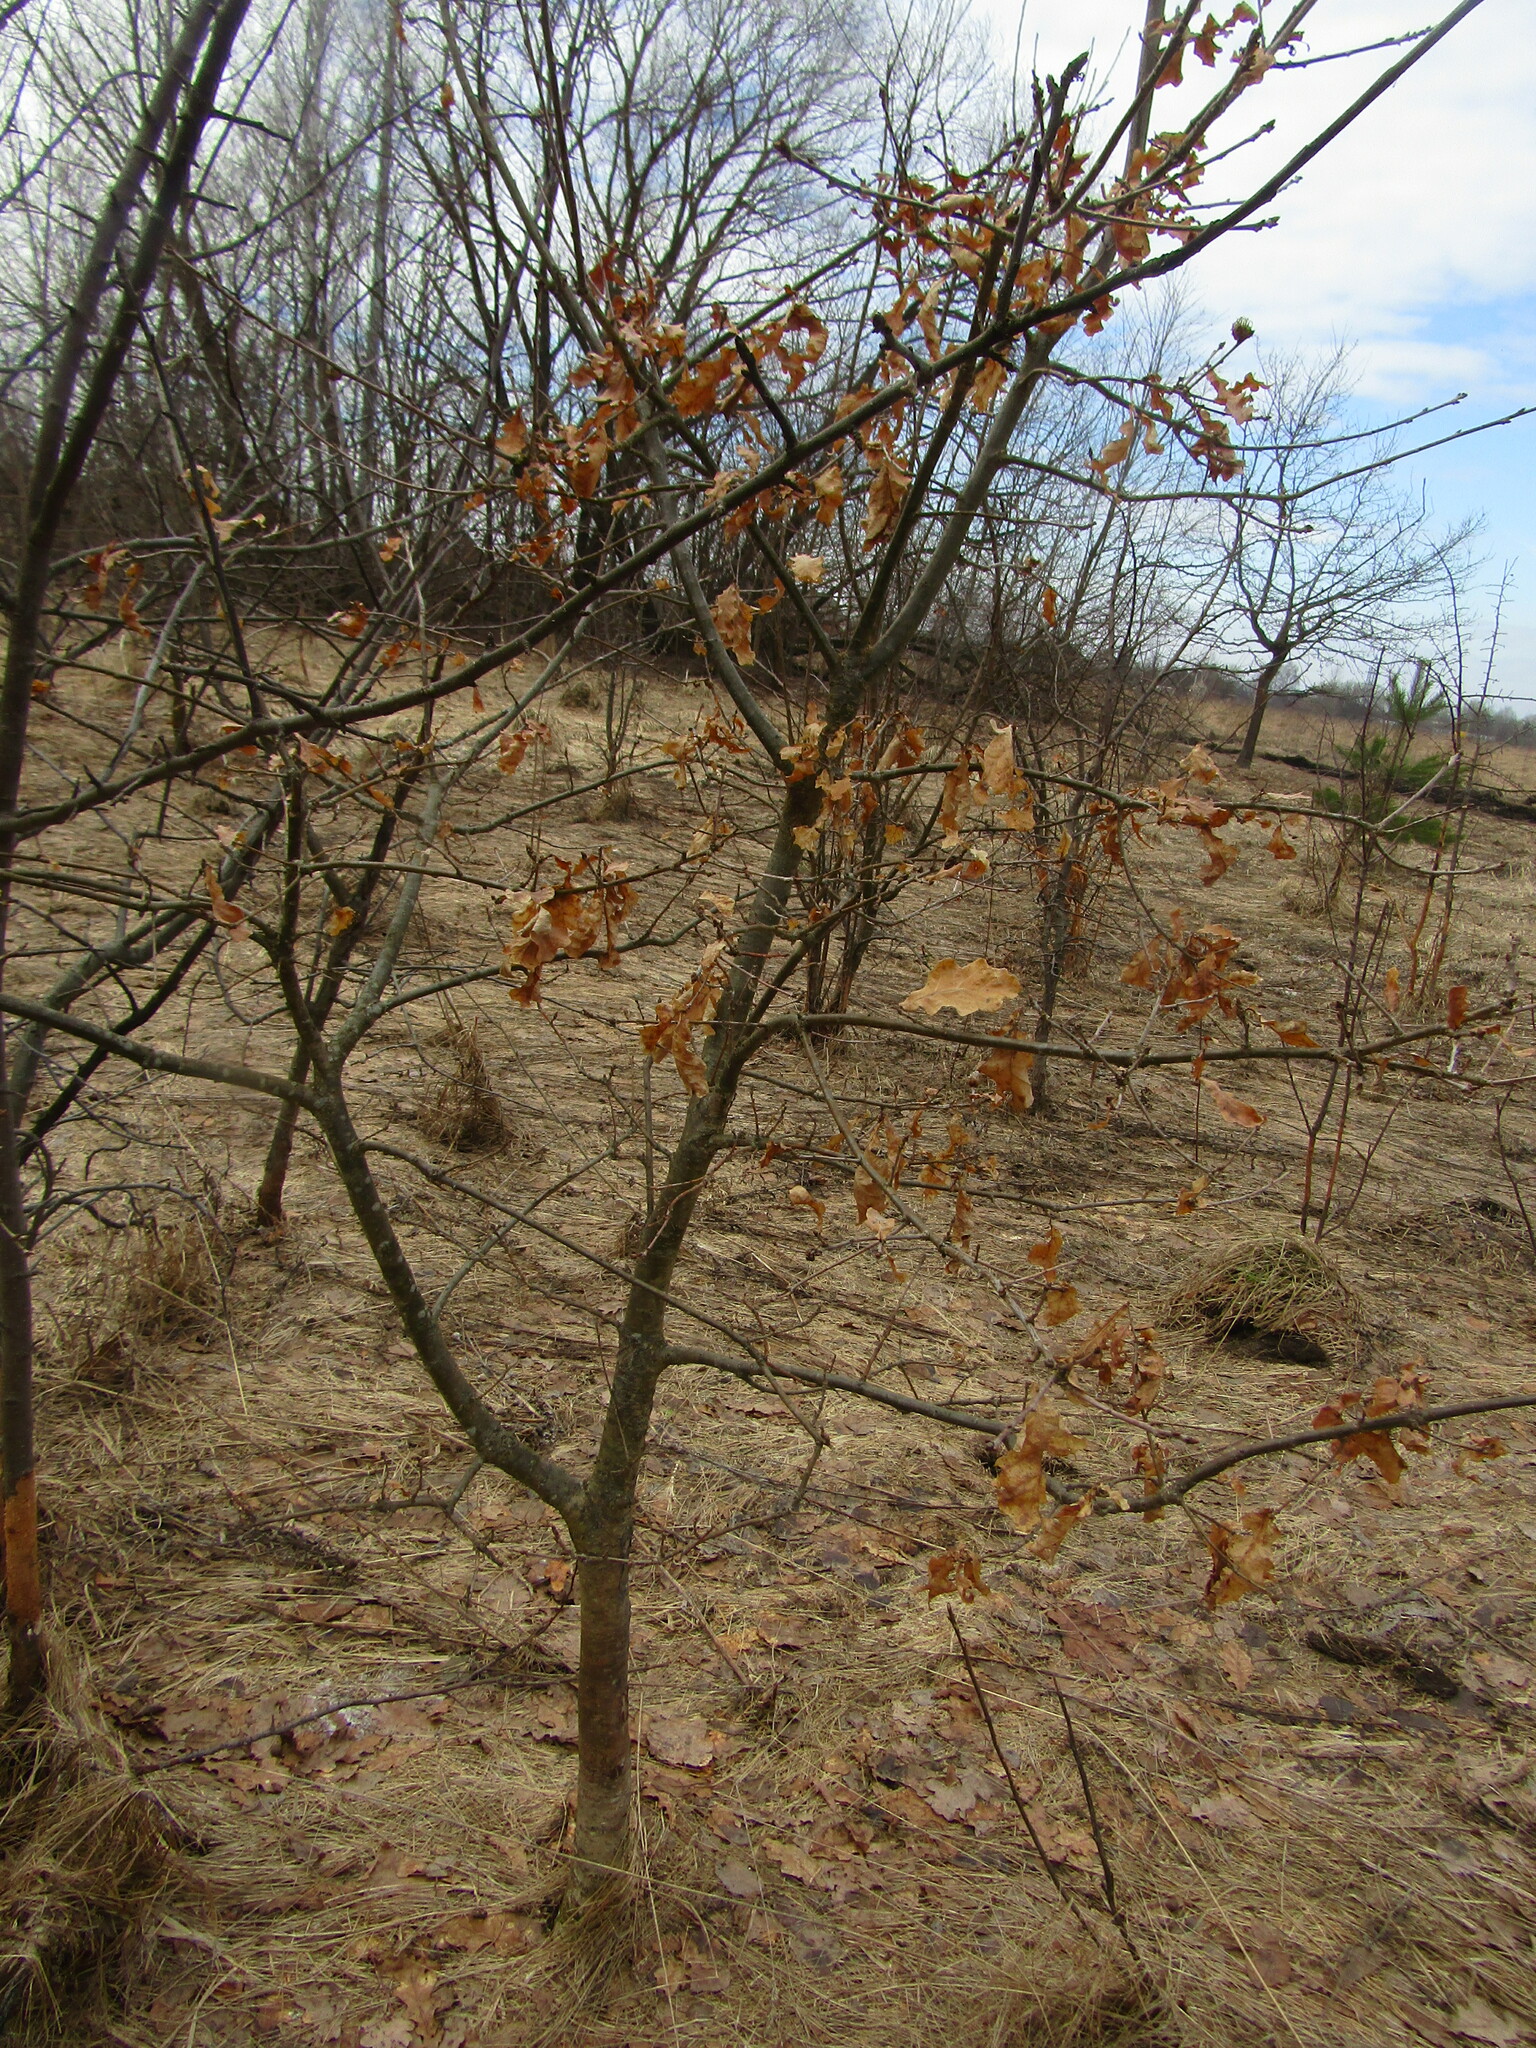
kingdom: Plantae
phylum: Tracheophyta
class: Magnoliopsida
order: Fagales
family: Fagaceae
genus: Quercus
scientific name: Quercus robur
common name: Pedunculate oak
